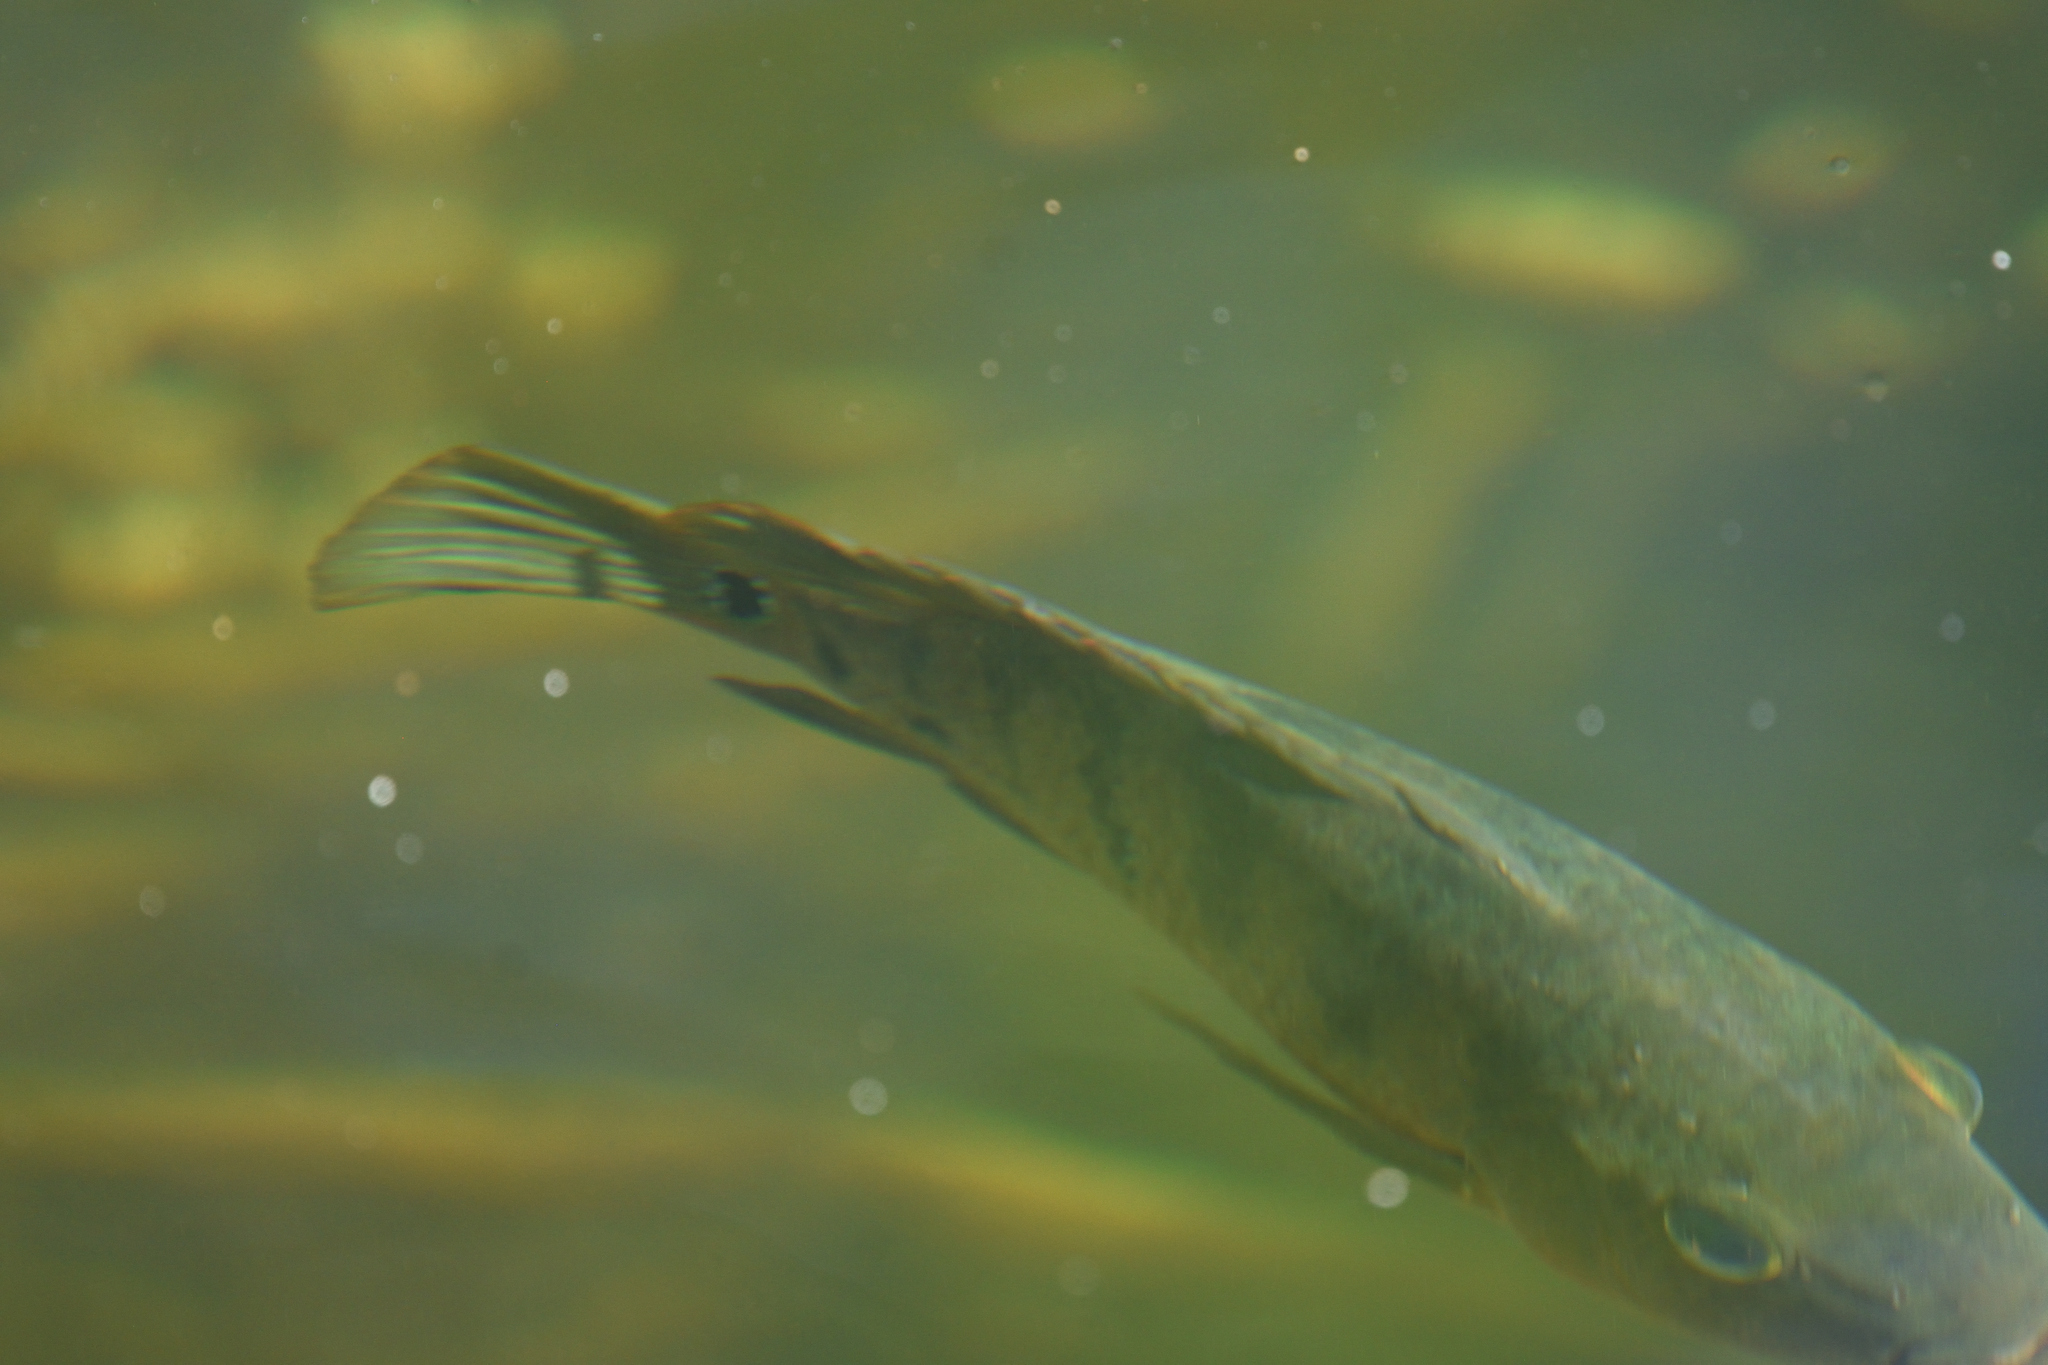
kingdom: Animalia
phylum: Chordata
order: Perciformes
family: Cichlidae
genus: Mayaheros
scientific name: Mayaheros urophthalmus
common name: Mayan cichlid
